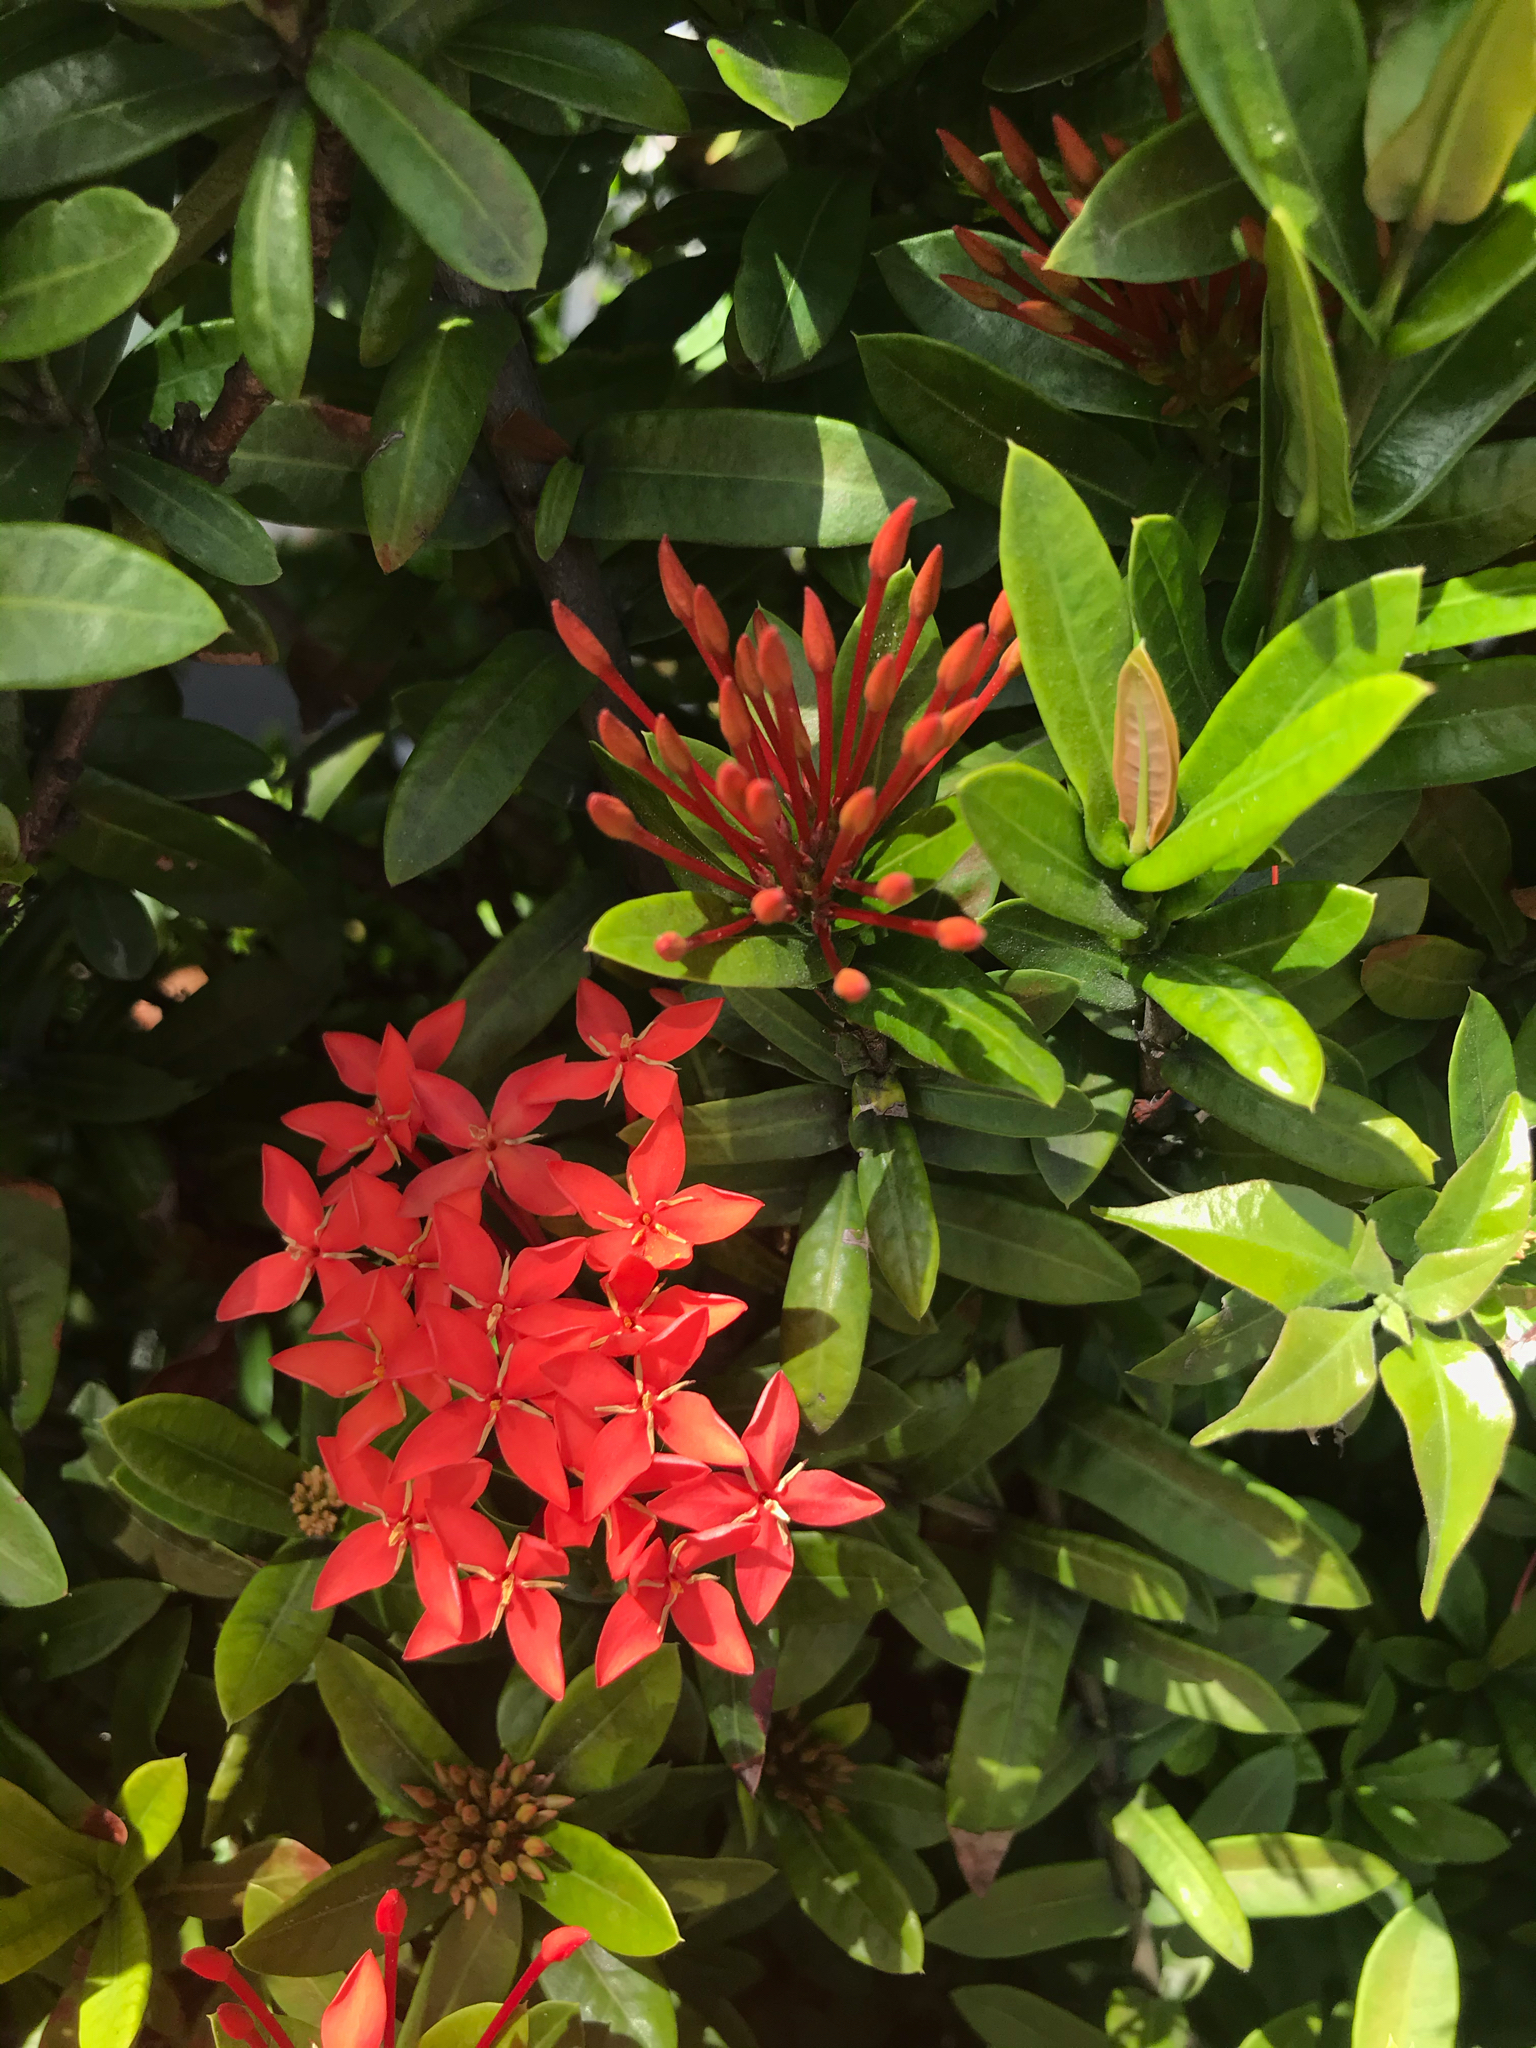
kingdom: Plantae
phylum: Tracheophyta
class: Magnoliopsida
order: Gentianales
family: Rubiaceae
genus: Ixora
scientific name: Ixora coccinea
